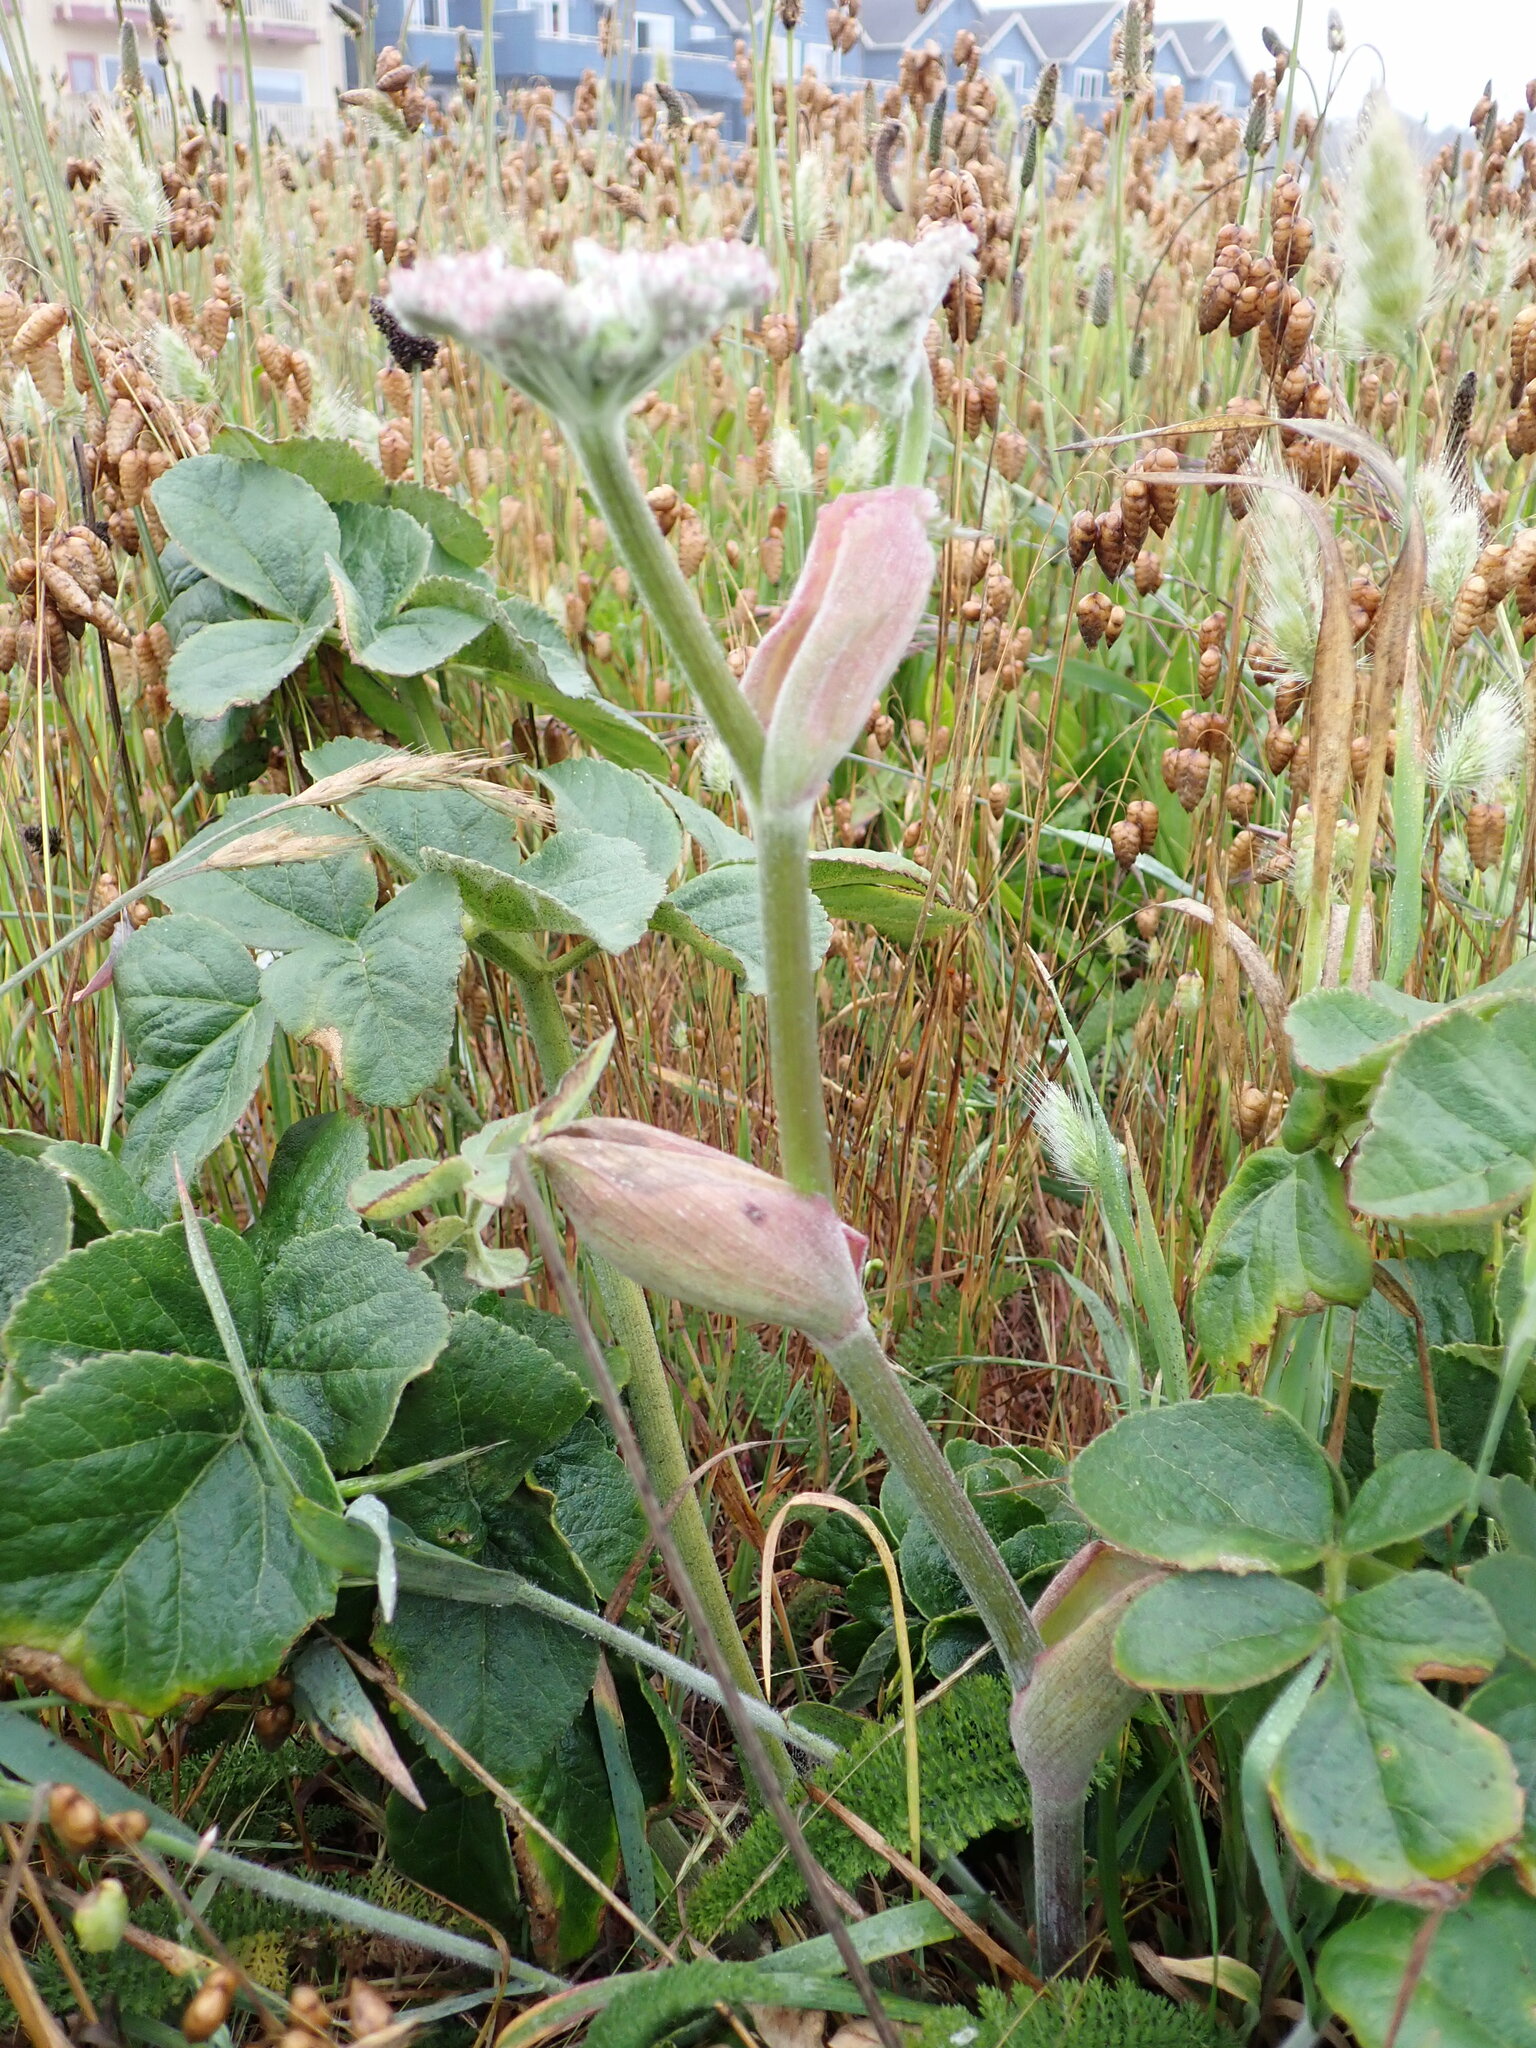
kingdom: Plantae
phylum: Tracheophyta
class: Magnoliopsida
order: Apiales
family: Apiaceae
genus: Angelica
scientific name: Angelica hendersonii
